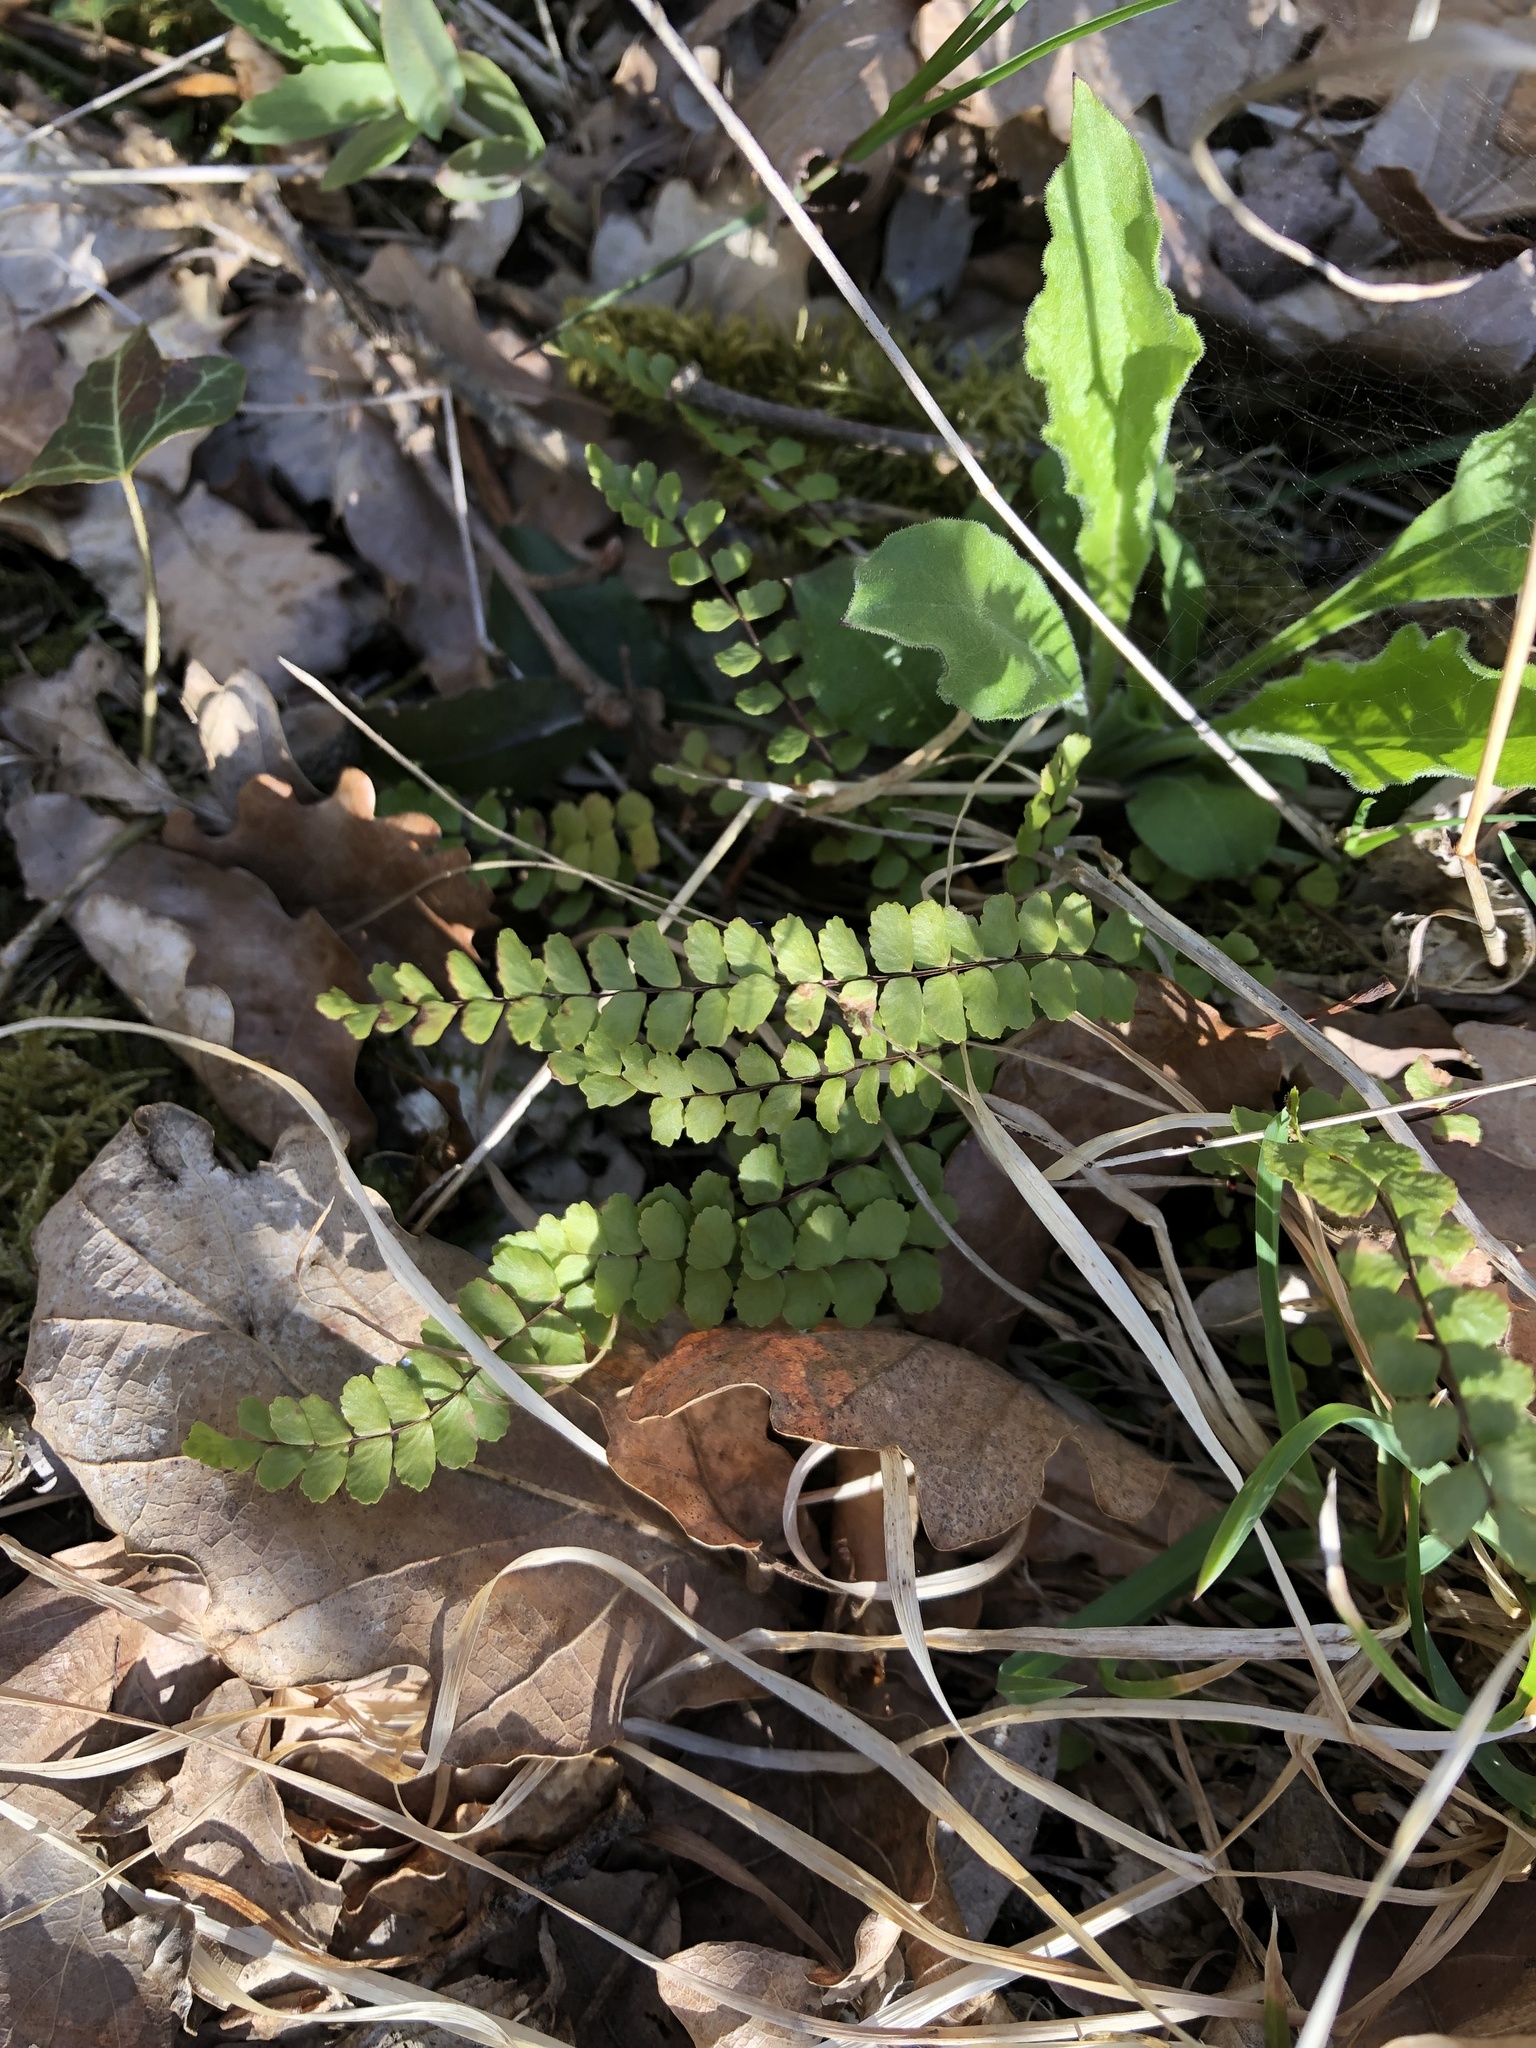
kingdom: Plantae
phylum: Tracheophyta
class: Polypodiopsida
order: Polypodiales
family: Aspleniaceae
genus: Asplenium
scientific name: Asplenium trichomanes
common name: Maidenhair spleenwort
